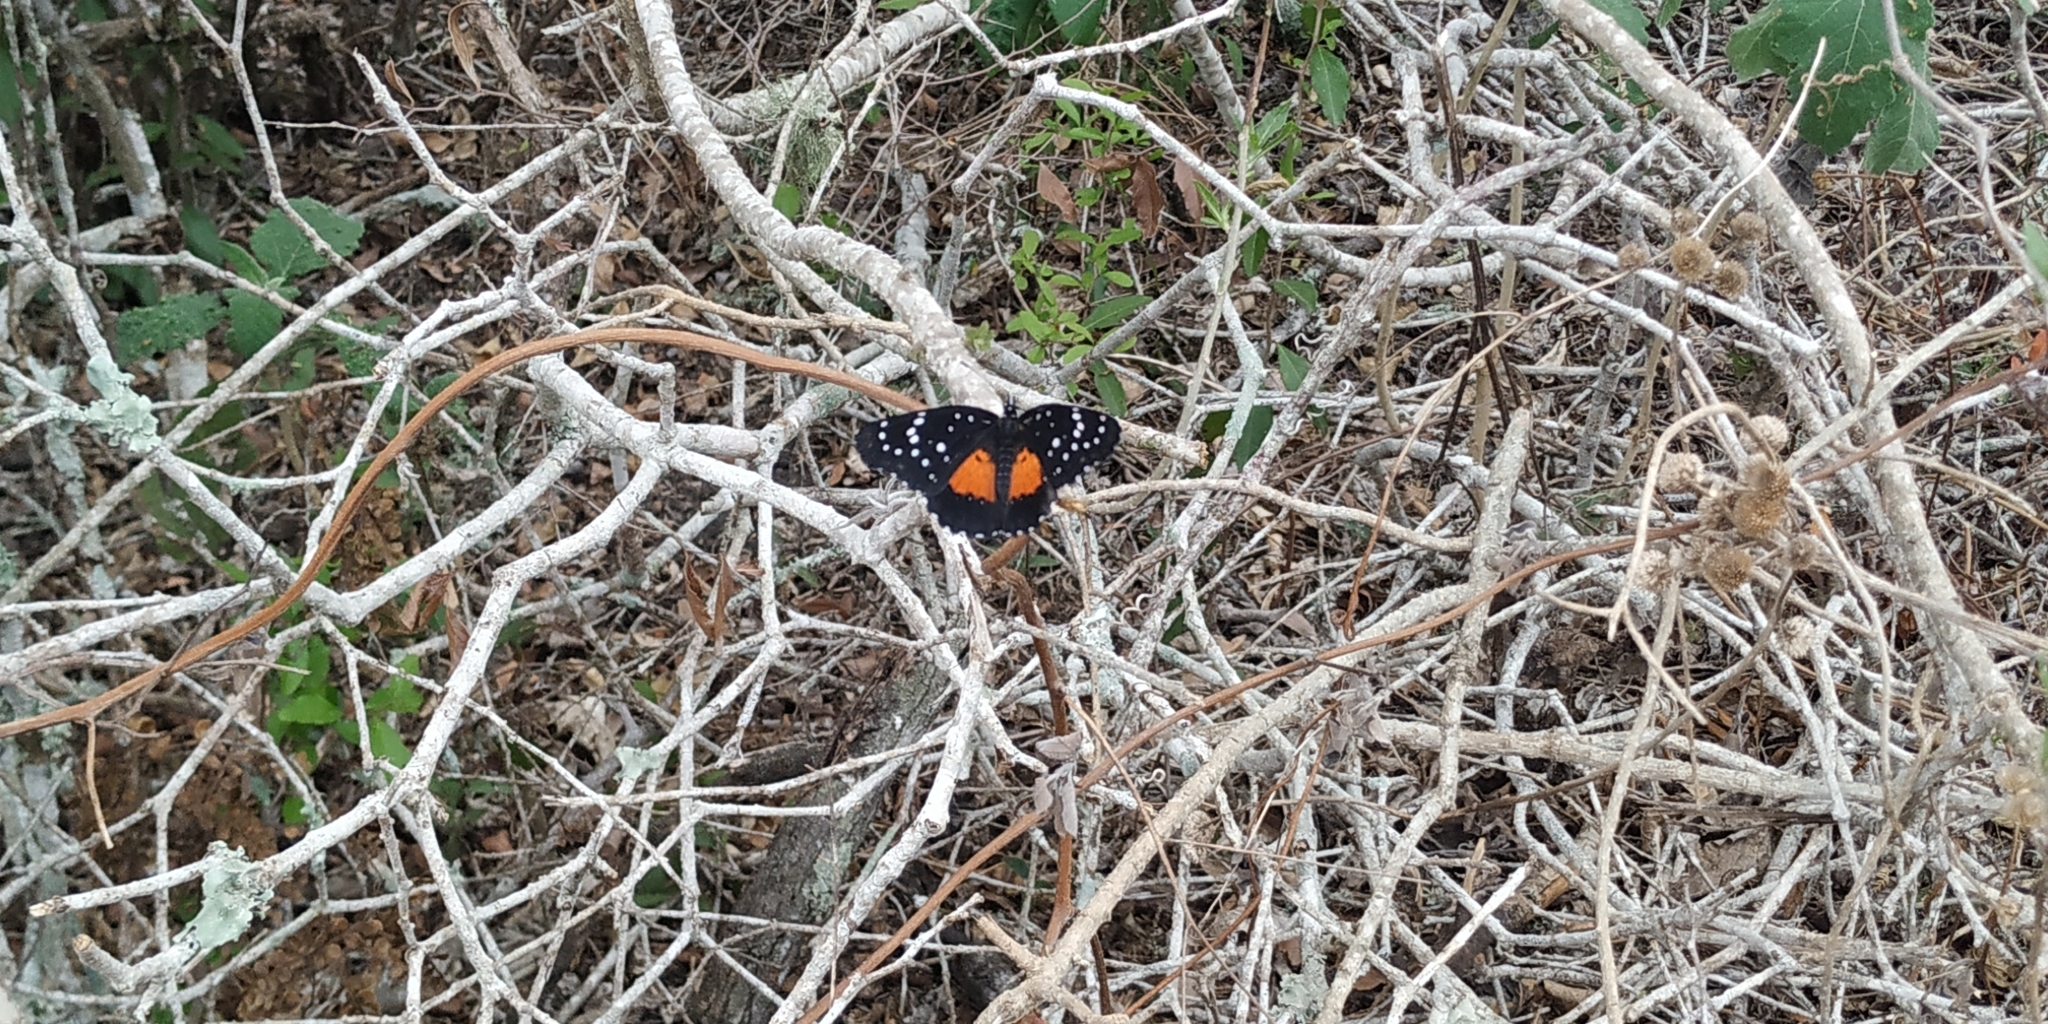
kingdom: Animalia
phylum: Arthropoda
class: Insecta
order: Lepidoptera
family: Nymphalidae
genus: Chlosyne
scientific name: Chlosyne janais
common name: Crimson patch
